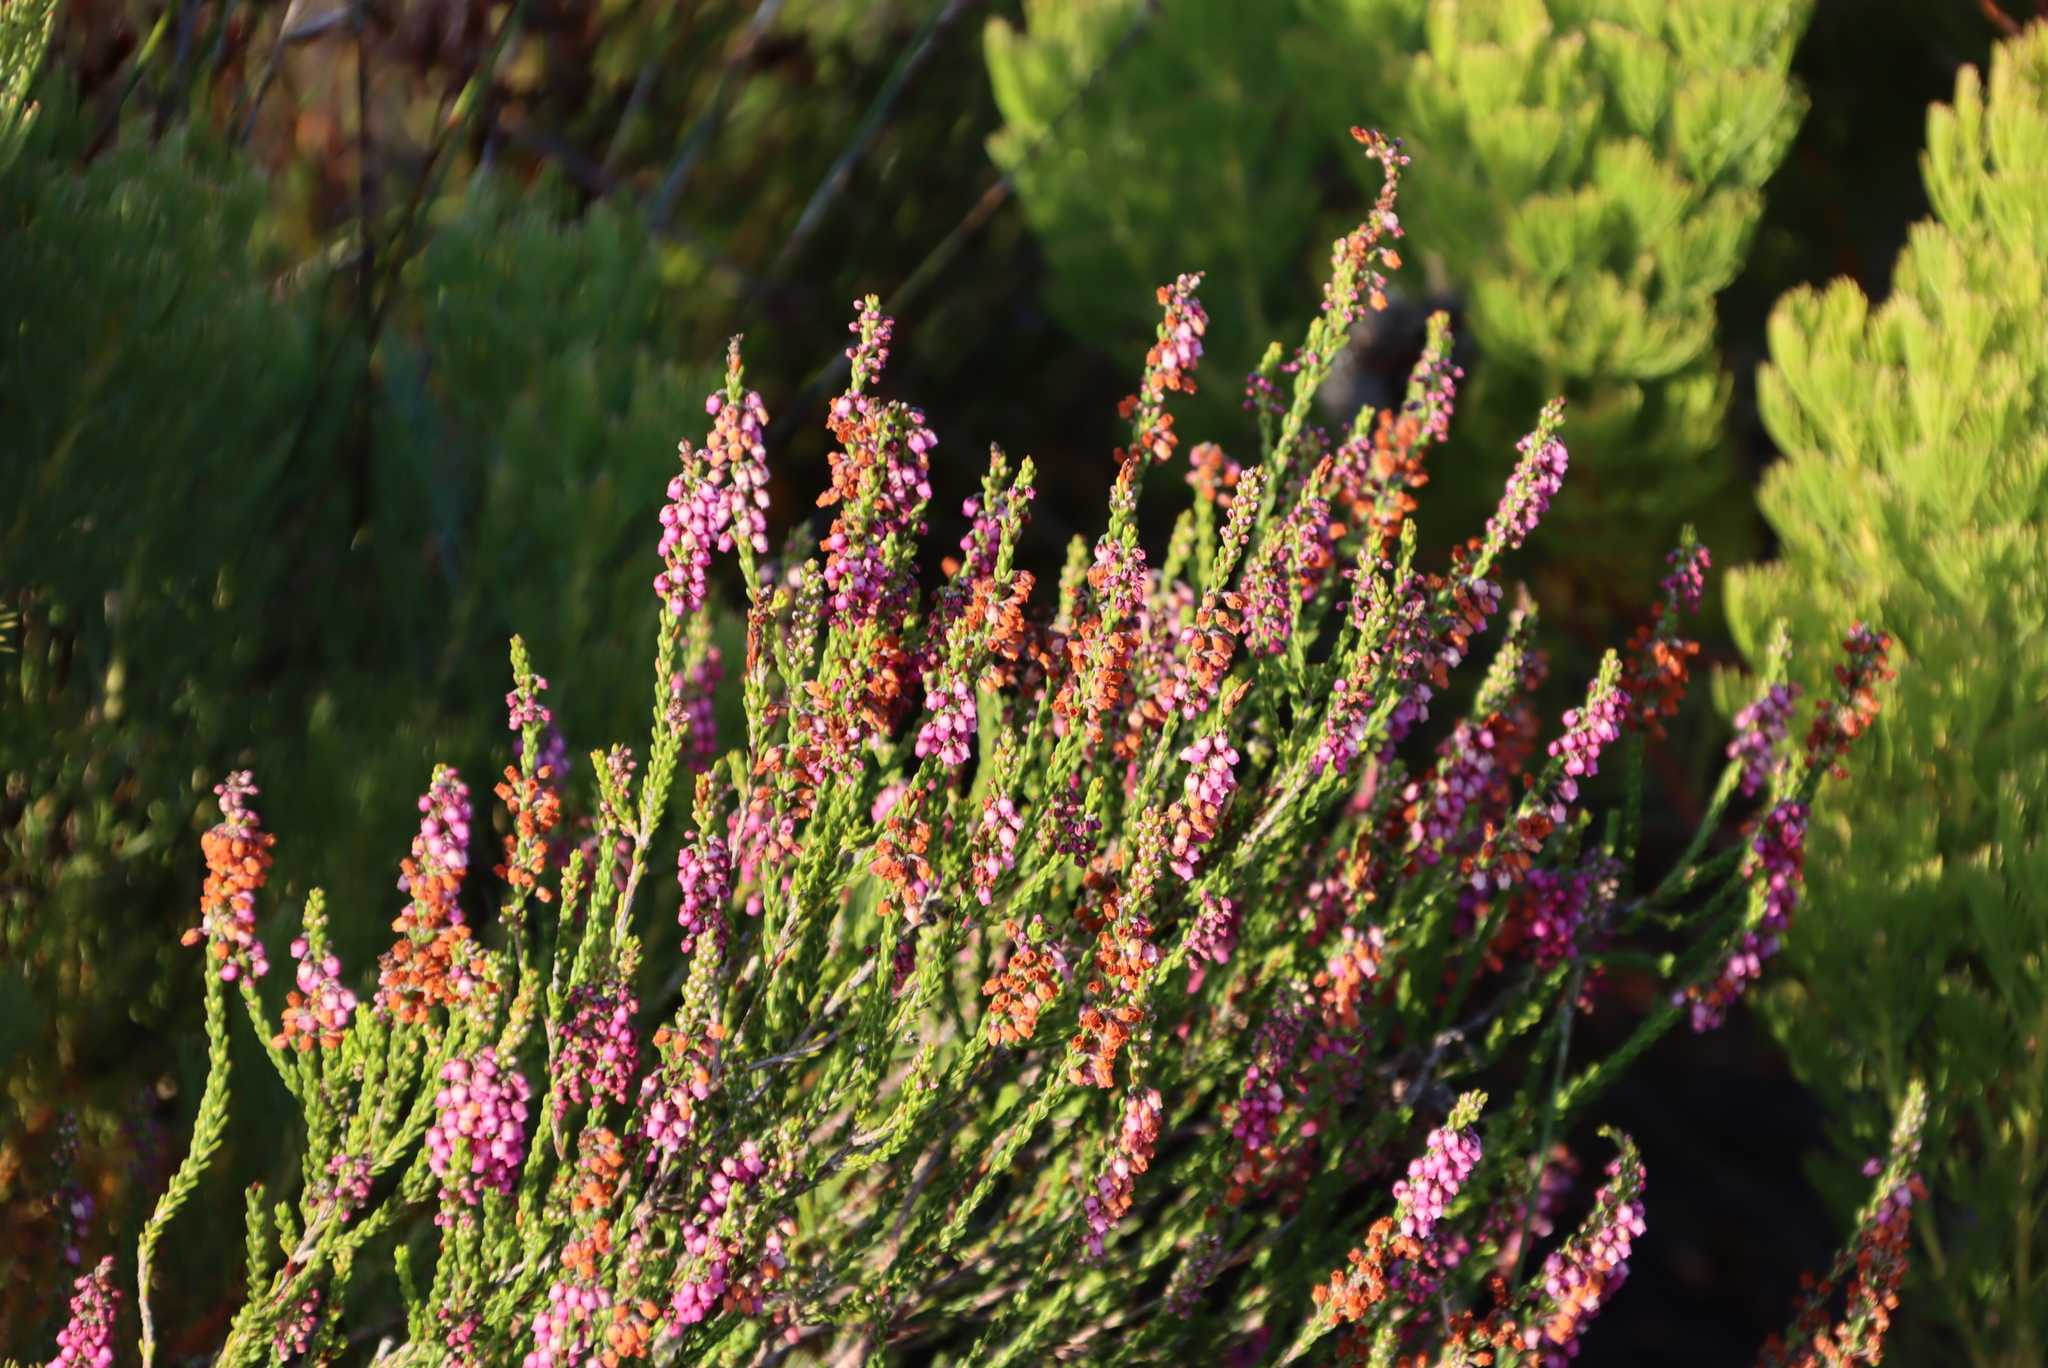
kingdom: Plantae
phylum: Tracheophyta
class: Magnoliopsida
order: Ericales
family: Ericaceae
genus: Erica
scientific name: Erica pulchella
